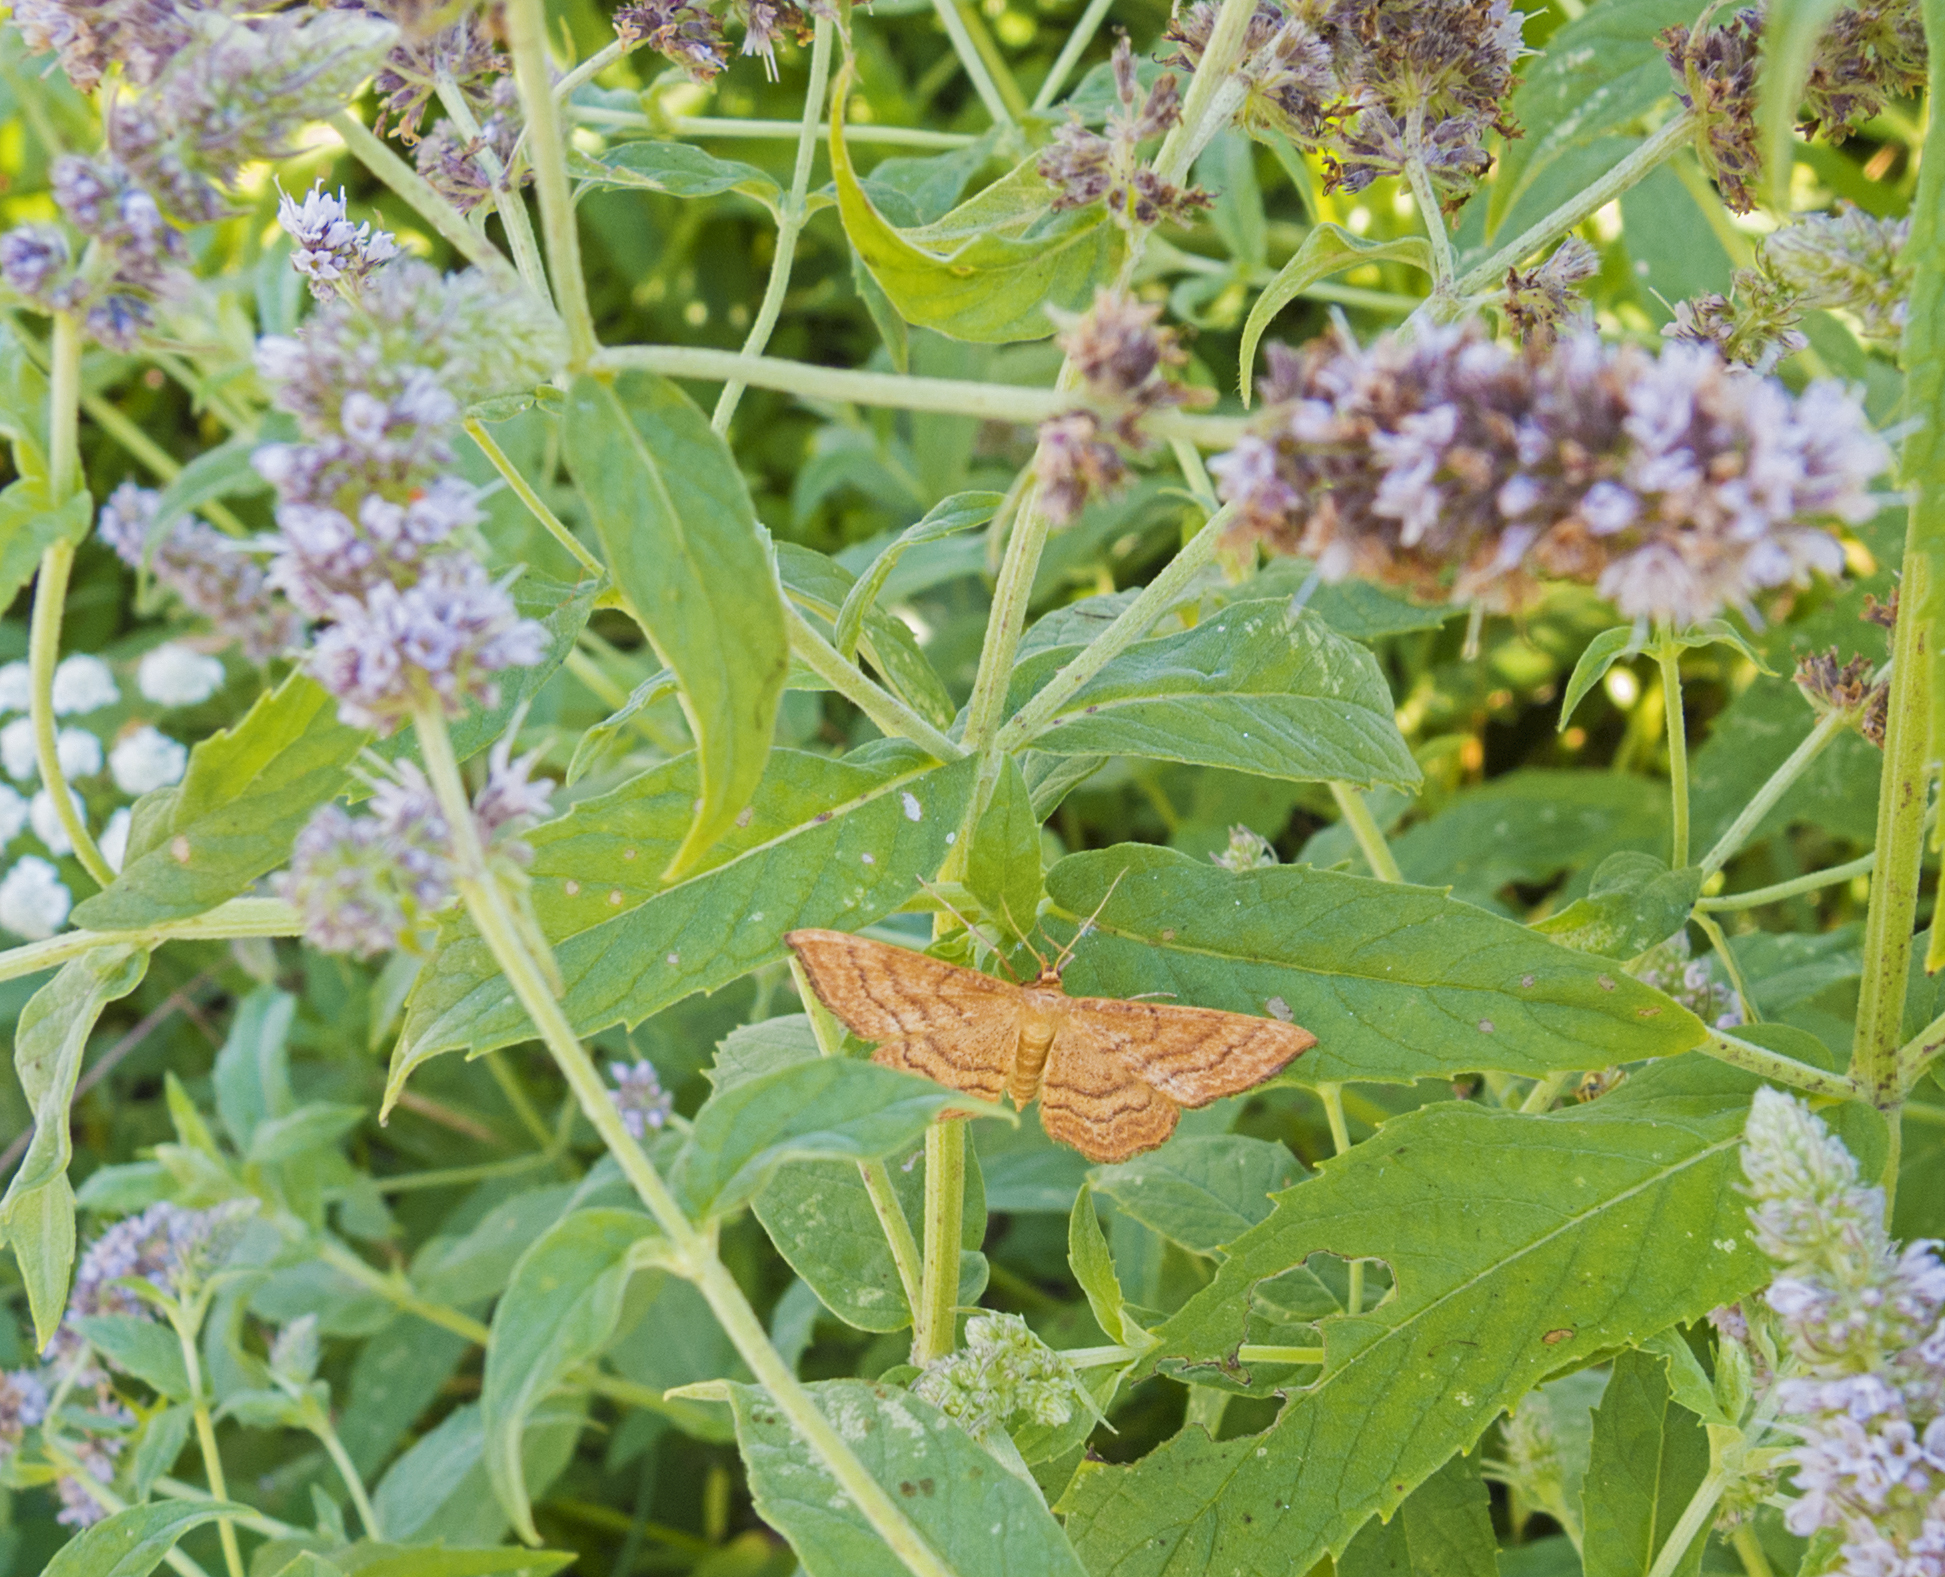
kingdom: Animalia
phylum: Arthropoda
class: Insecta
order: Lepidoptera
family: Geometridae
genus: Idaea
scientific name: Idaea ochrata
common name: Bright wave
